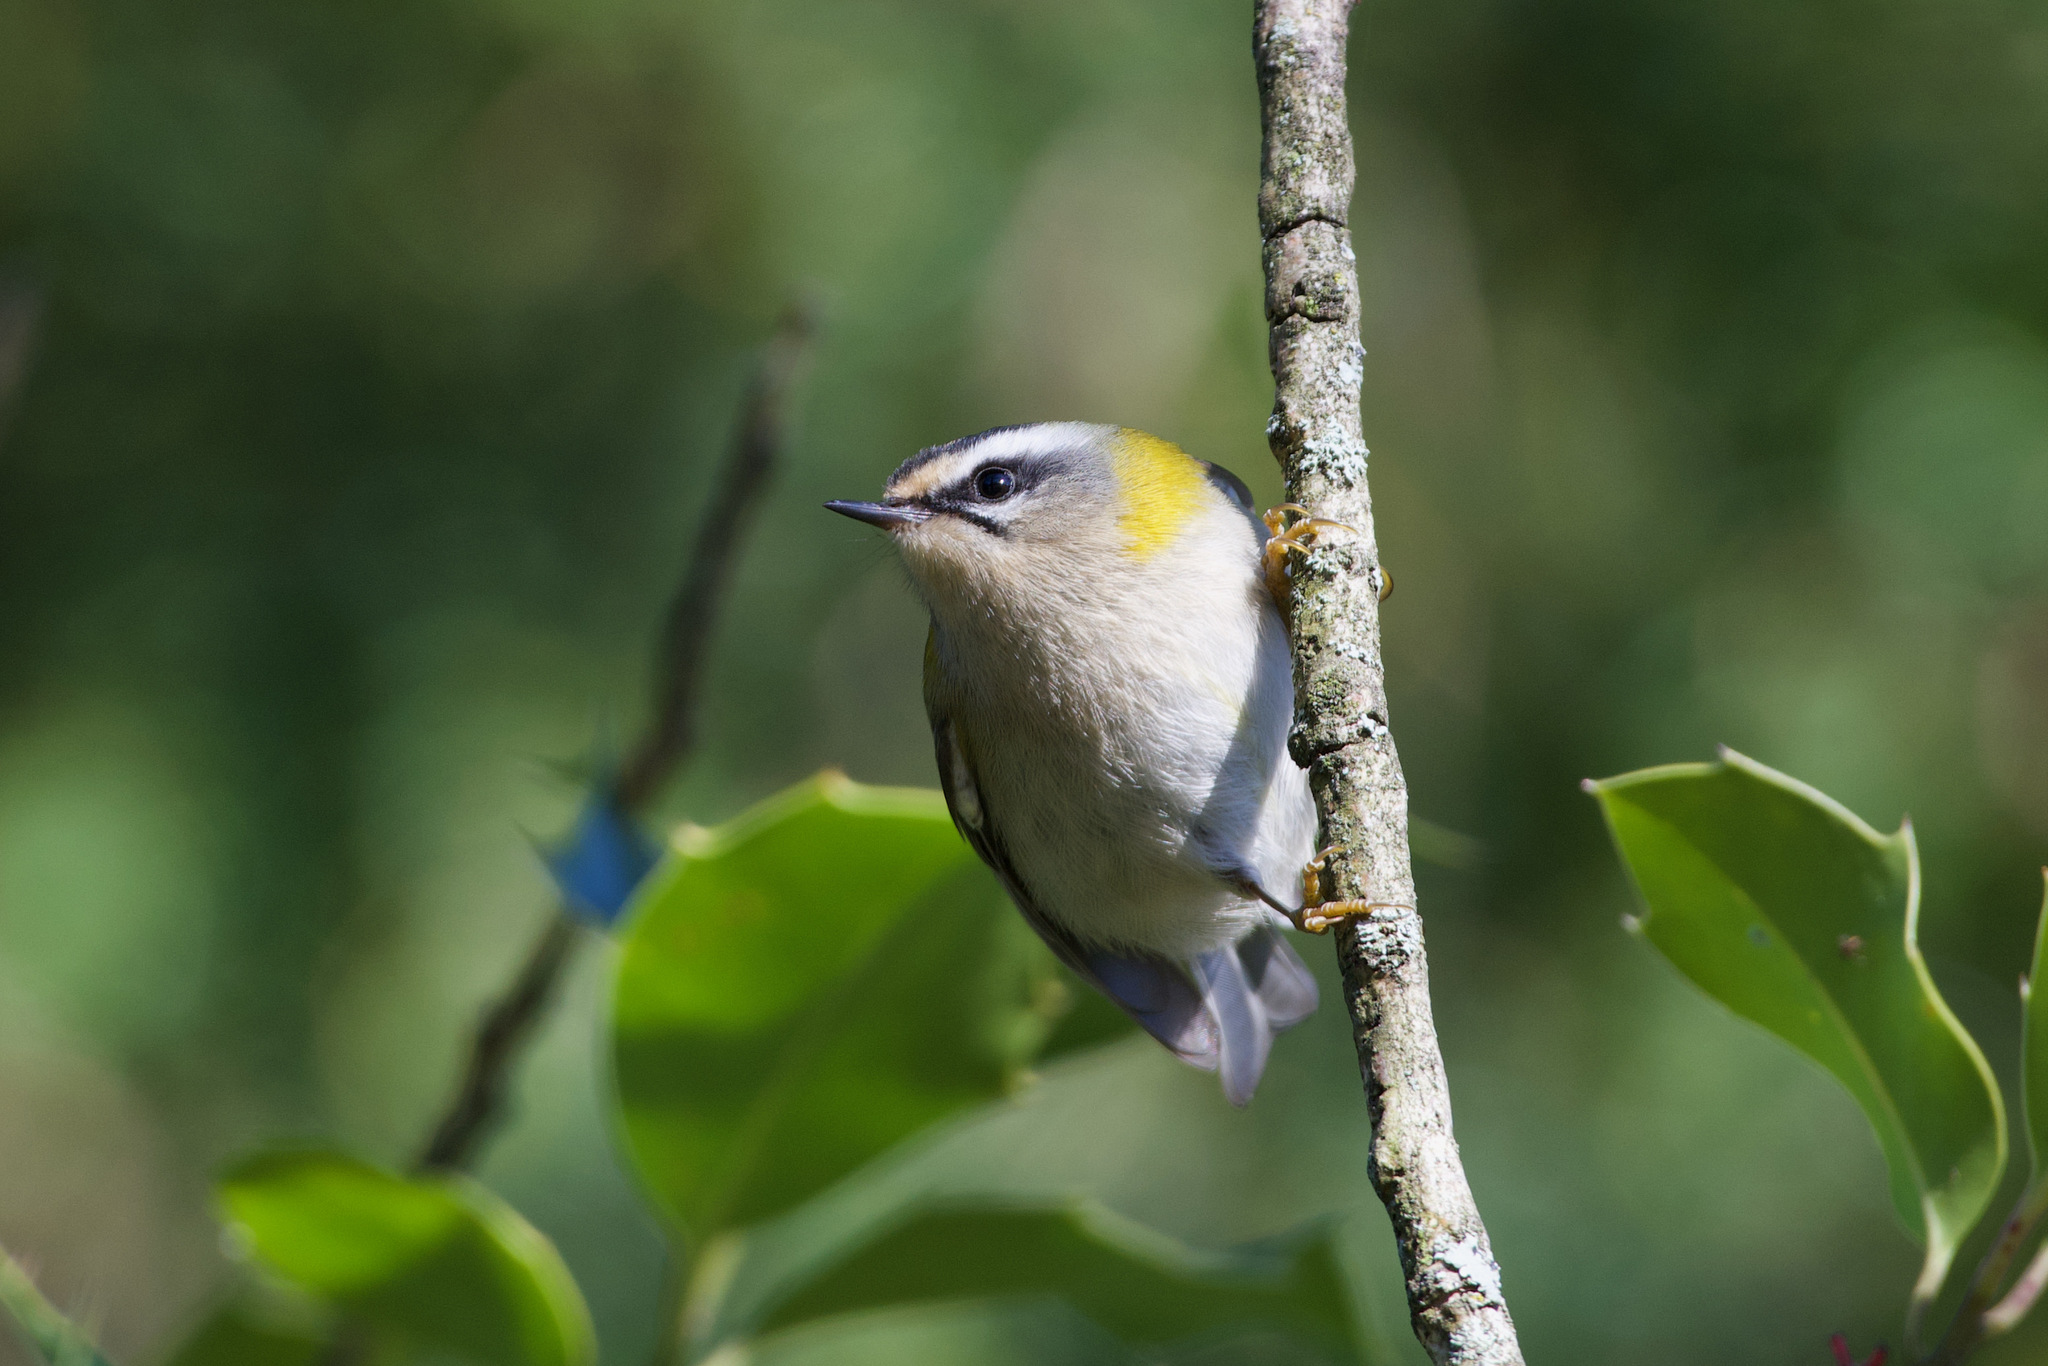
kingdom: Animalia
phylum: Chordata
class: Aves
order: Passeriformes
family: Regulidae
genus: Regulus
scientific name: Regulus ignicapilla
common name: Firecrest
